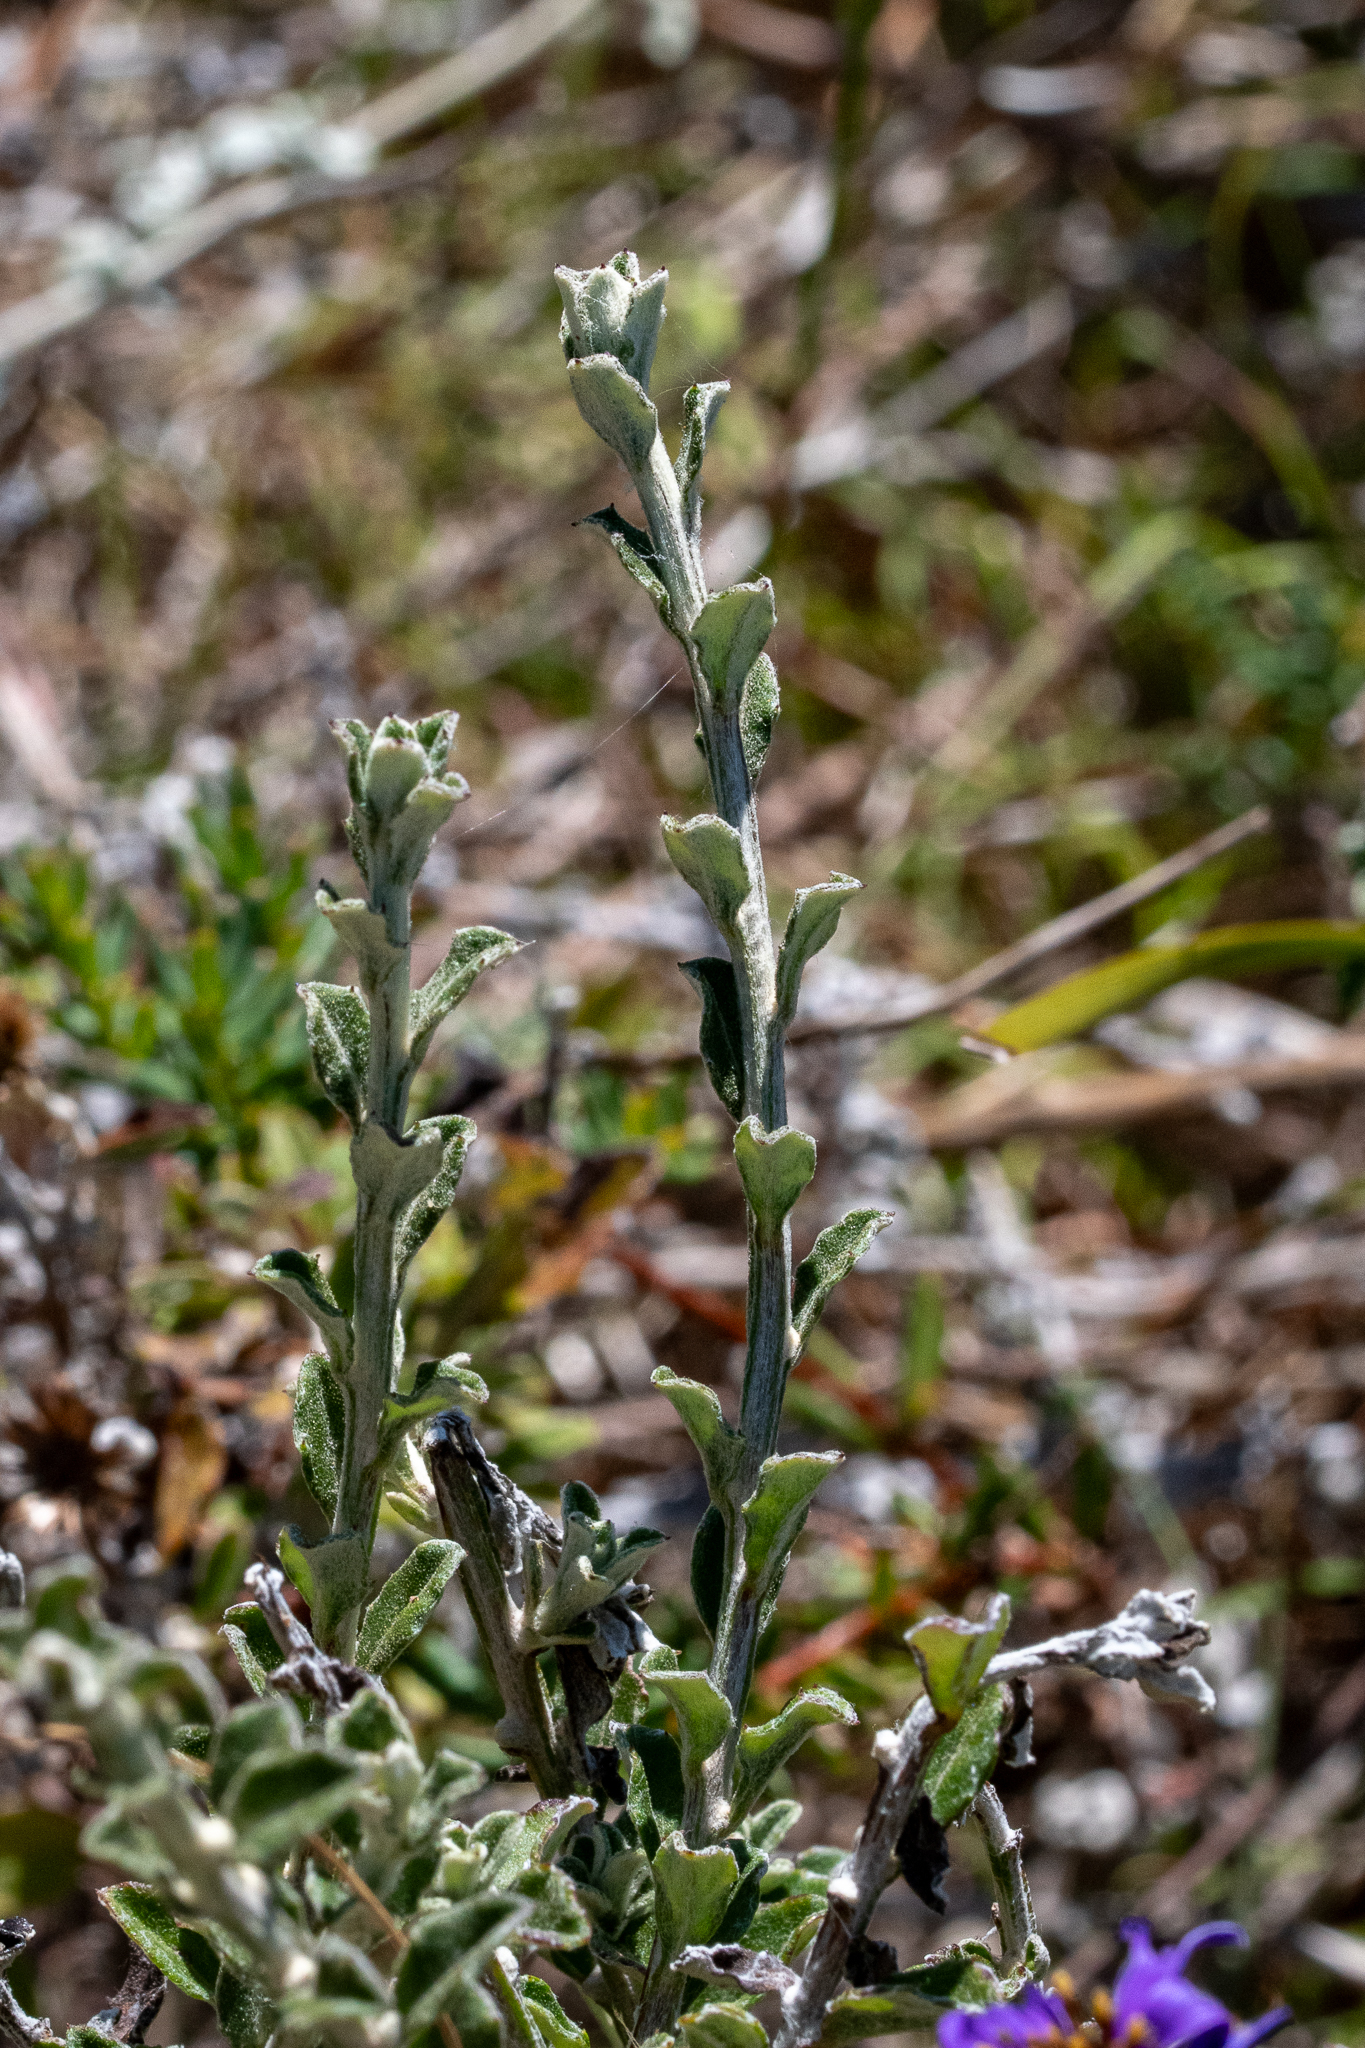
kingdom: Plantae
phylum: Tracheophyta
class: Magnoliopsida
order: Asterales
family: Asteraceae
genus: Printzia
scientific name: Printzia polifolia
